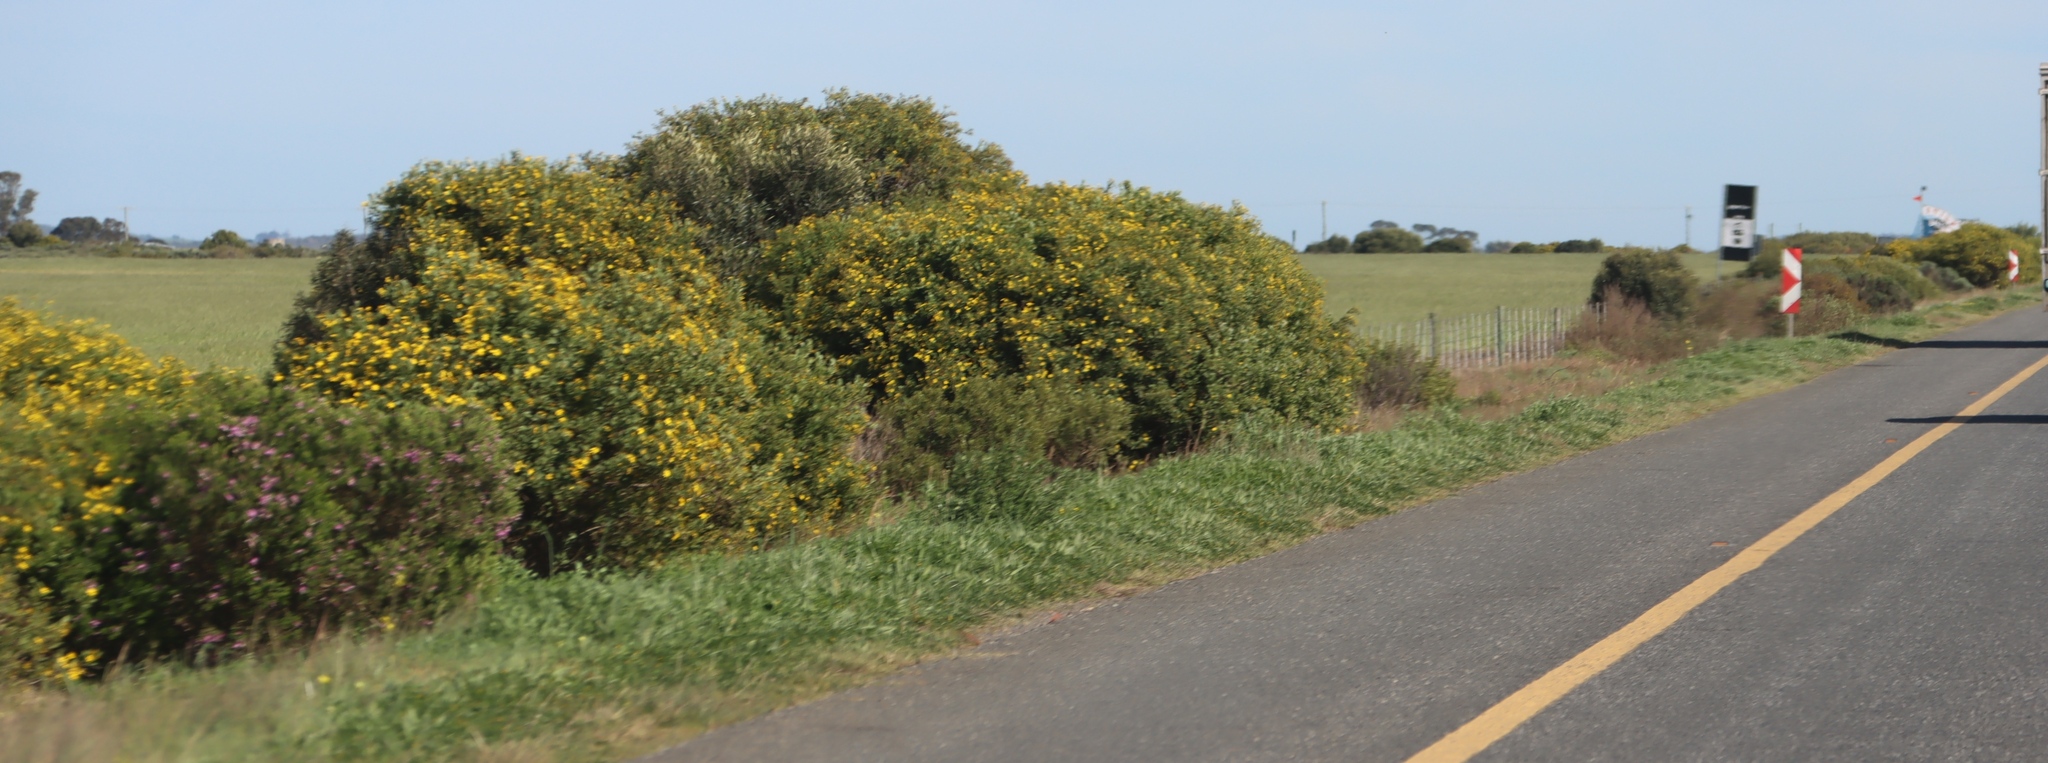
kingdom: Plantae
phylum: Tracheophyta
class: Magnoliopsida
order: Asterales
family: Asteraceae
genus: Osteospermum
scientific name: Osteospermum moniliferum
